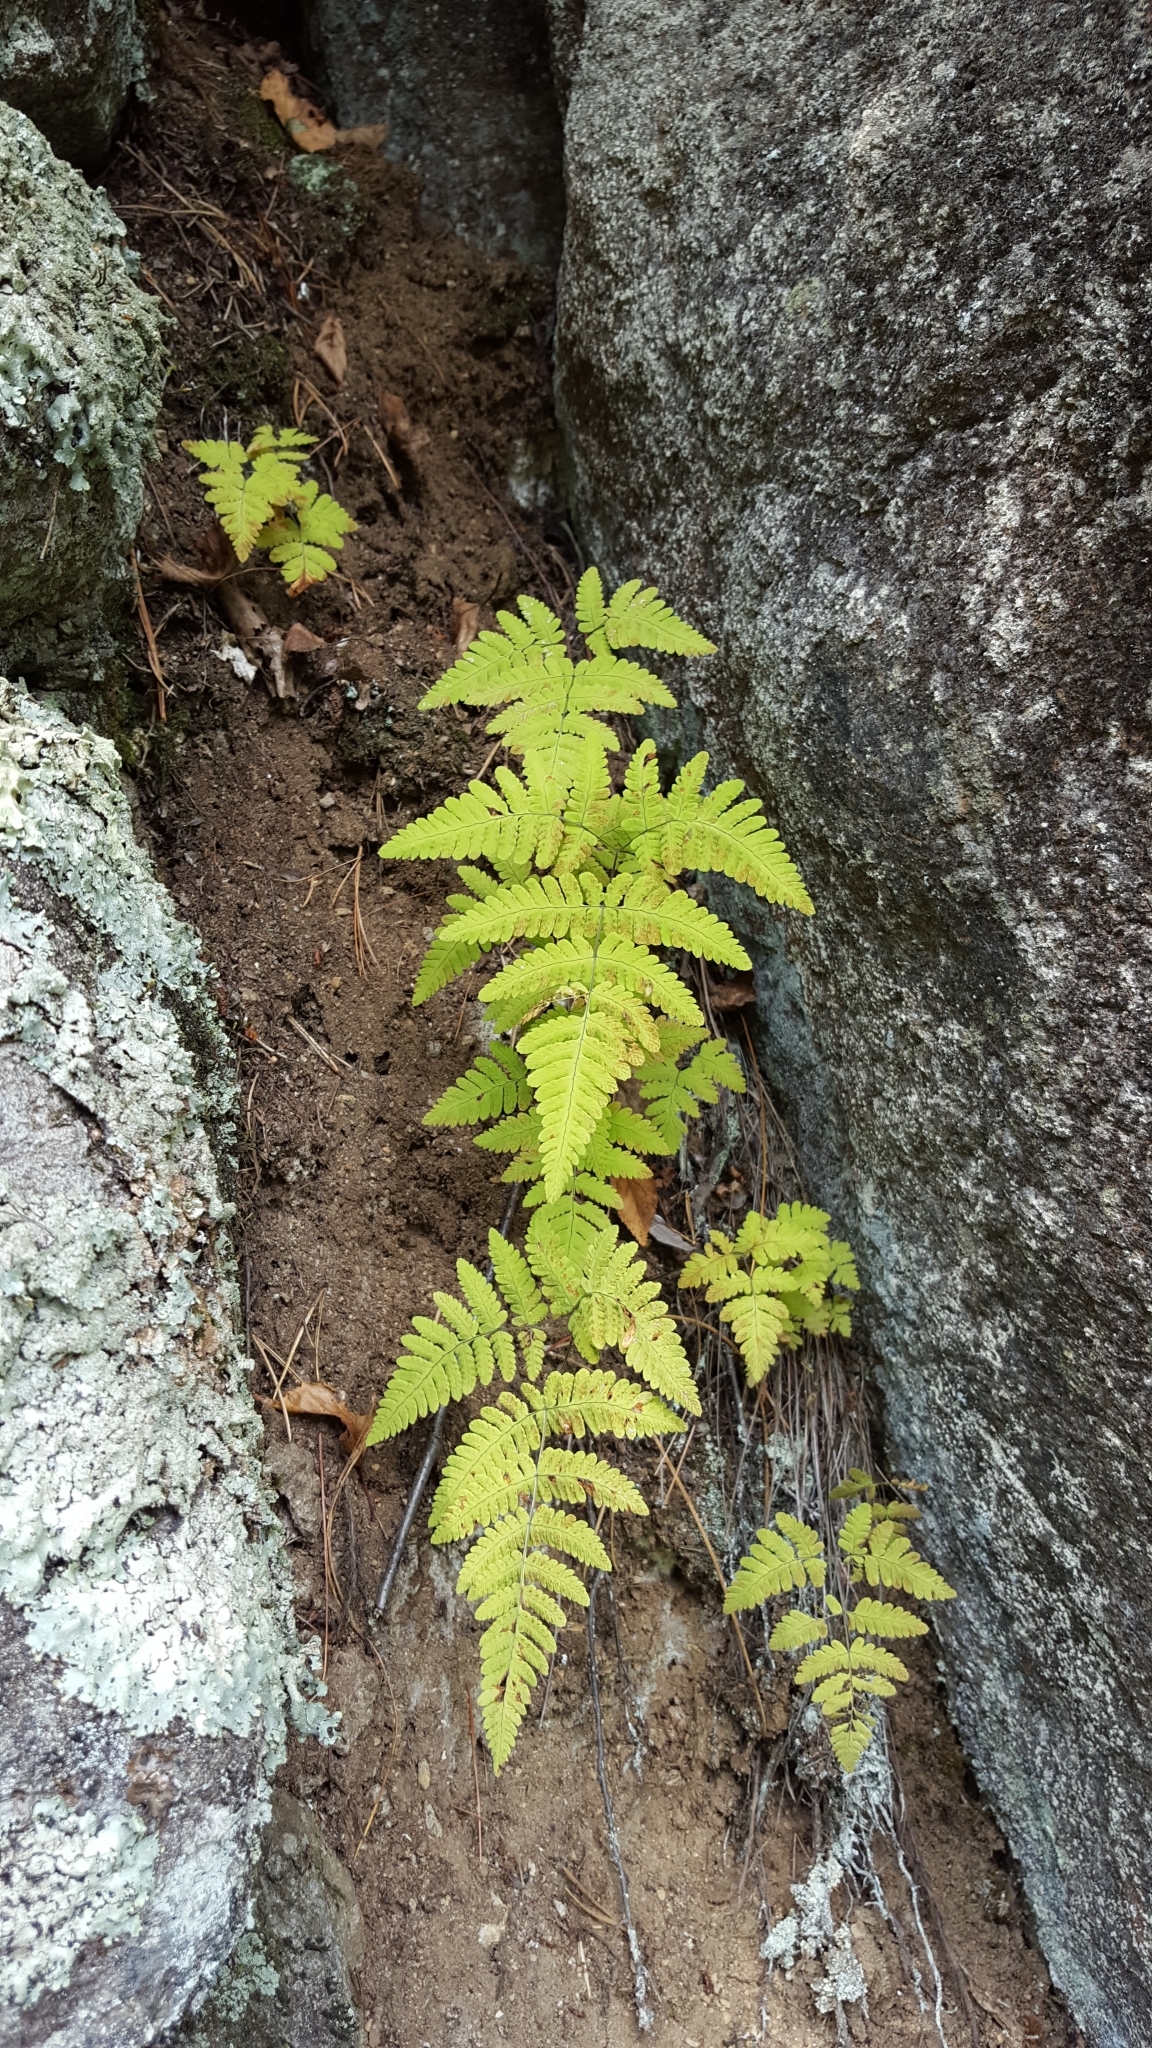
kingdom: Plantae
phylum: Tracheophyta
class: Polypodiopsida
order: Polypodiales
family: Cystopteridaceae
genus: Gymnocarpium
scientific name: Gymnocarpium jessoense
